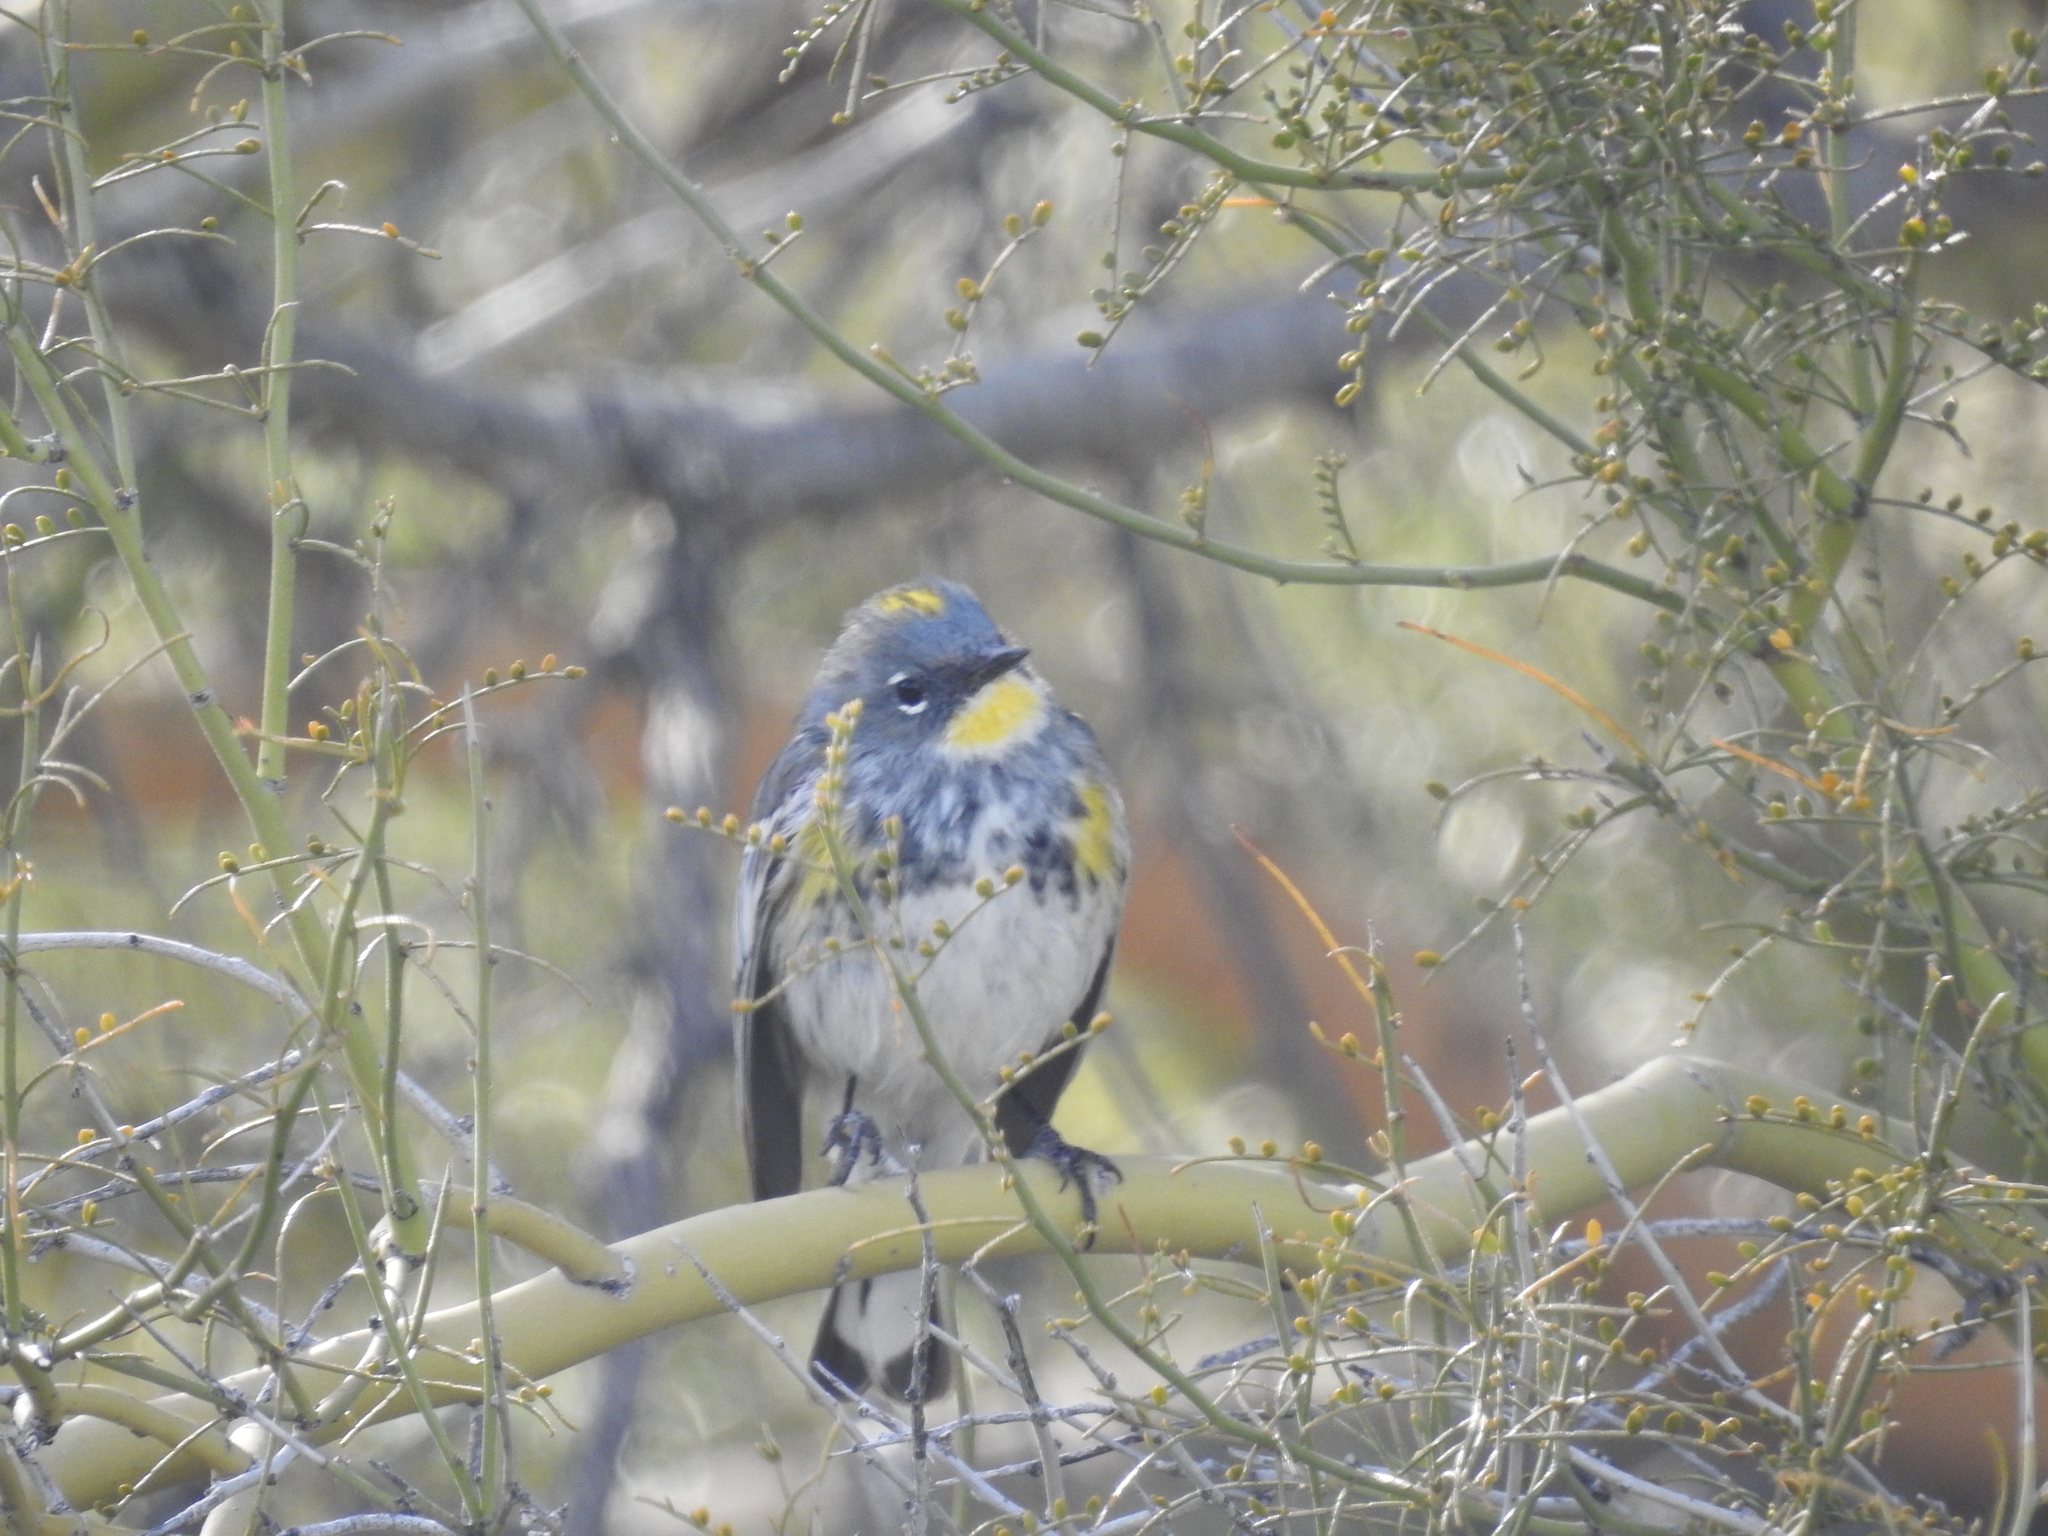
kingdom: Animalia
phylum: Chordata
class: Aves
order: Passeriformes
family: Parulidae
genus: Setophaga
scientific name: Setophaga coronata
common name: Myrtle warbler
